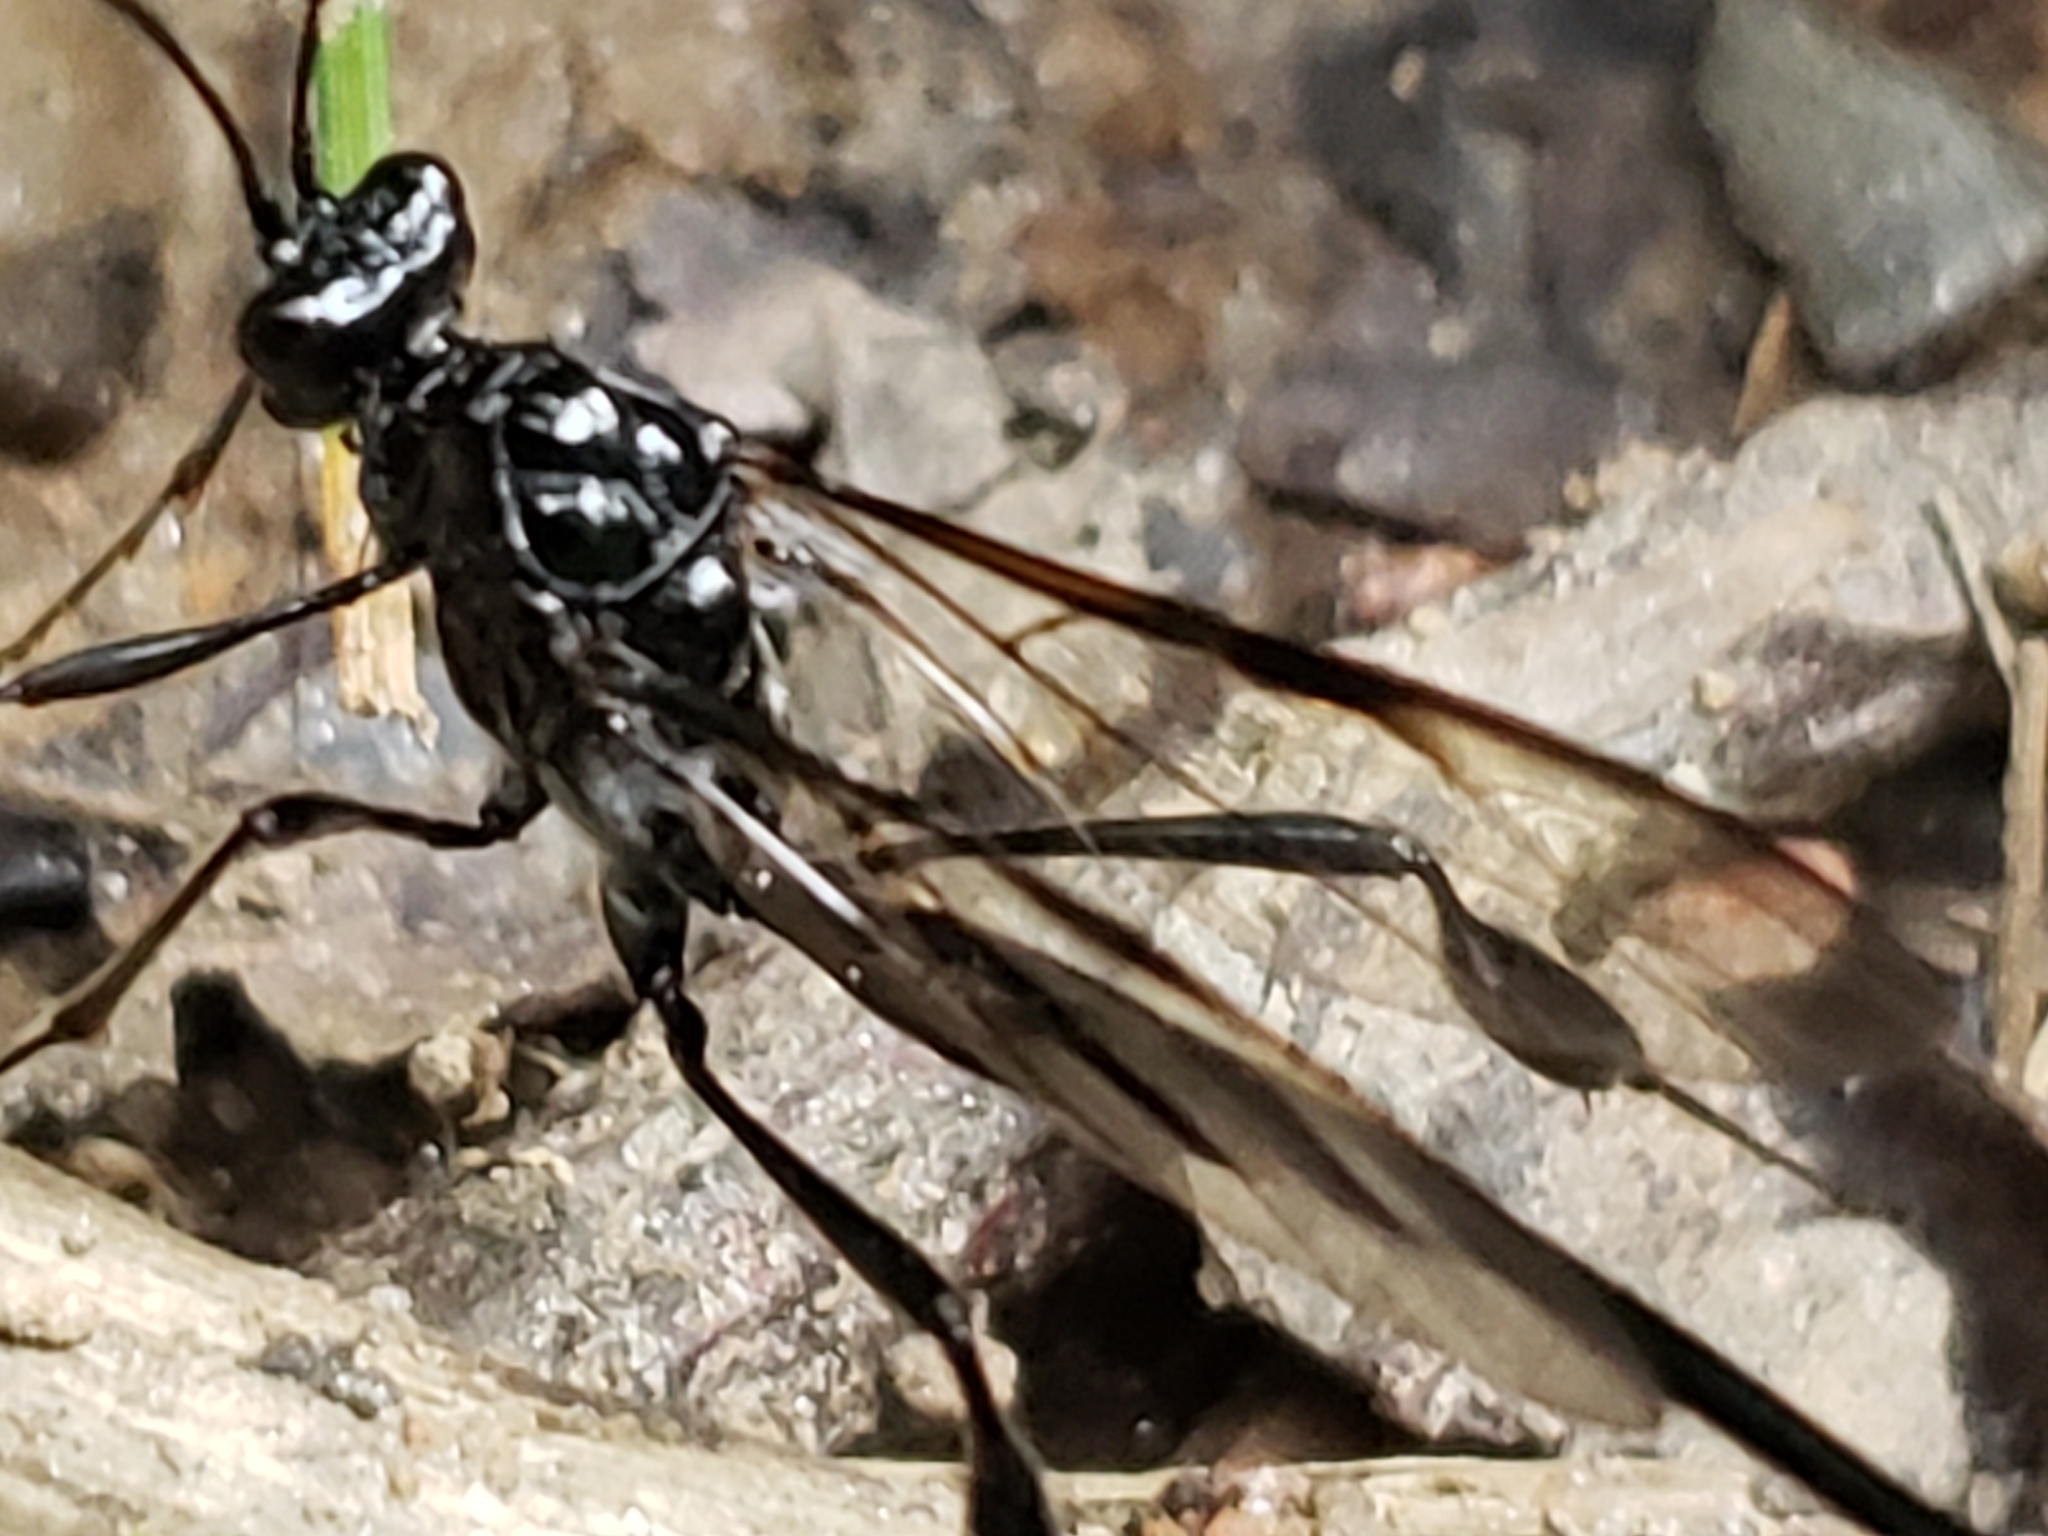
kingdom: Animalia
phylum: Arthropoda
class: Insecta
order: Hymenoptera
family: Pelecinidae
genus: Pelecinus
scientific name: Pelecinus polyturator
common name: American pelecinid wasp
